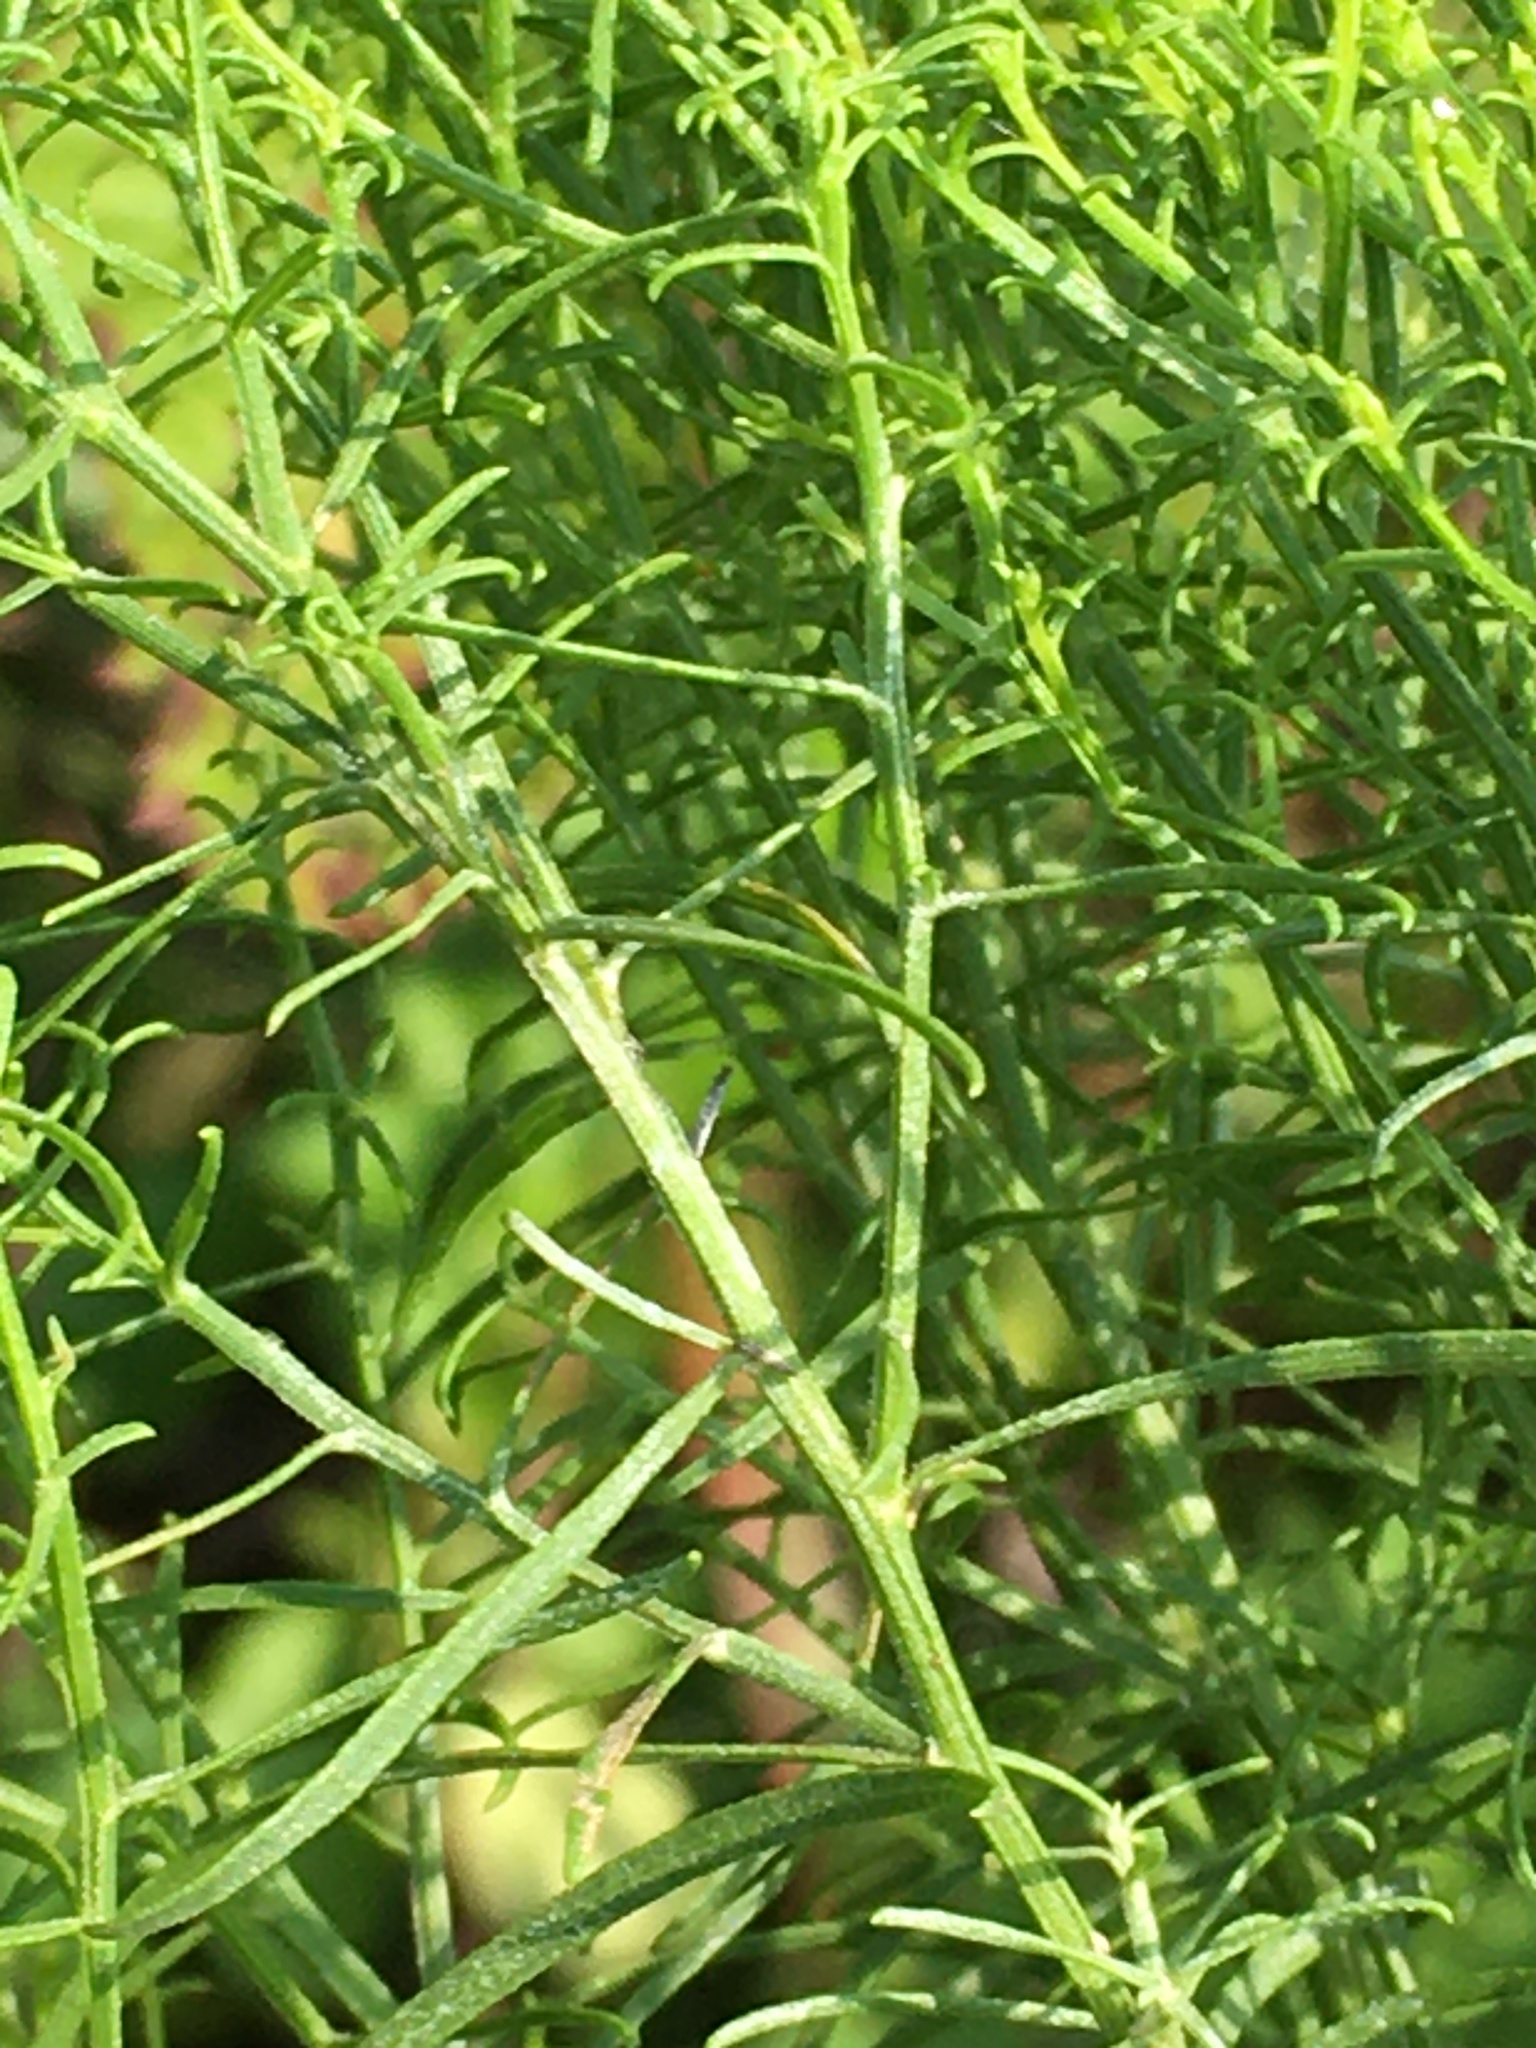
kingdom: Plantae
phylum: Tracheophyta
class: Magnoliopsida
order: Asterales
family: Asteraceae
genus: Euthamia
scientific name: Euthamia caroliniana
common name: Coastal plain goldentop
